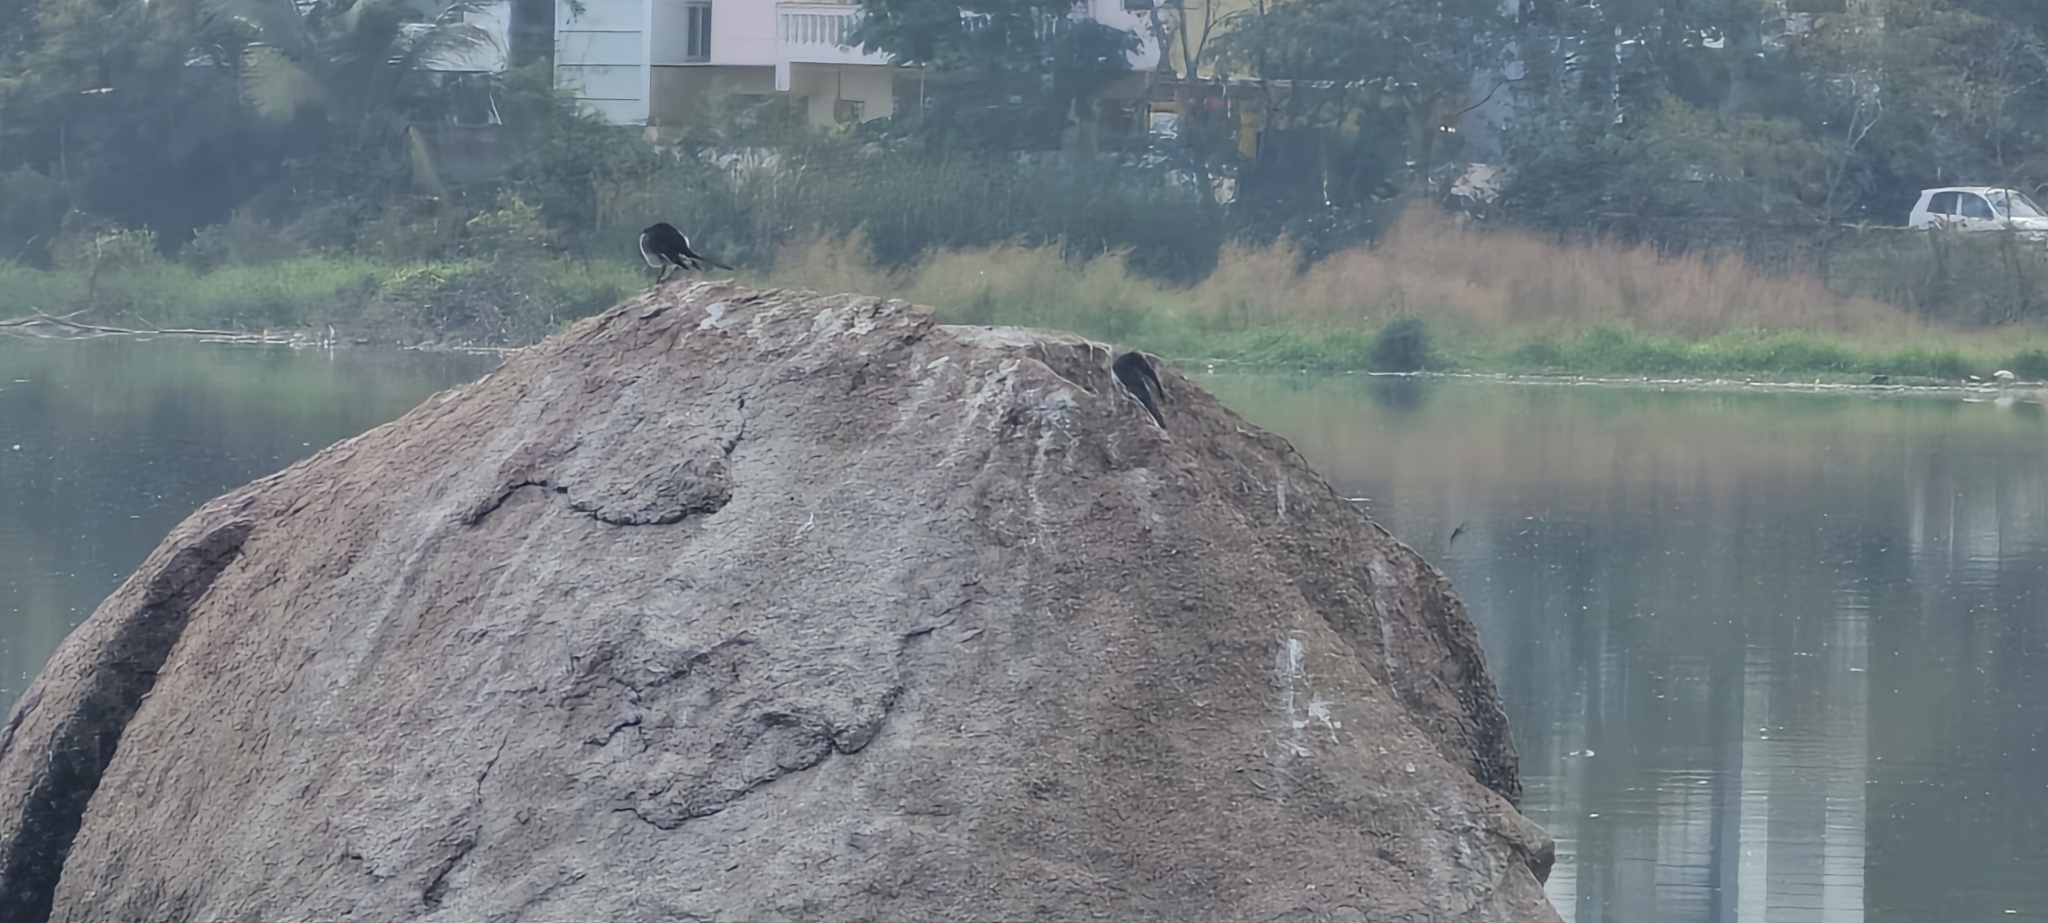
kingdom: Animalia
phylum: Chordata
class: Aves
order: Passeriformes
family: Motacillidae
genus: Motacilla
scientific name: Motacilla maderaspatensis
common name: White-browed wagtail
